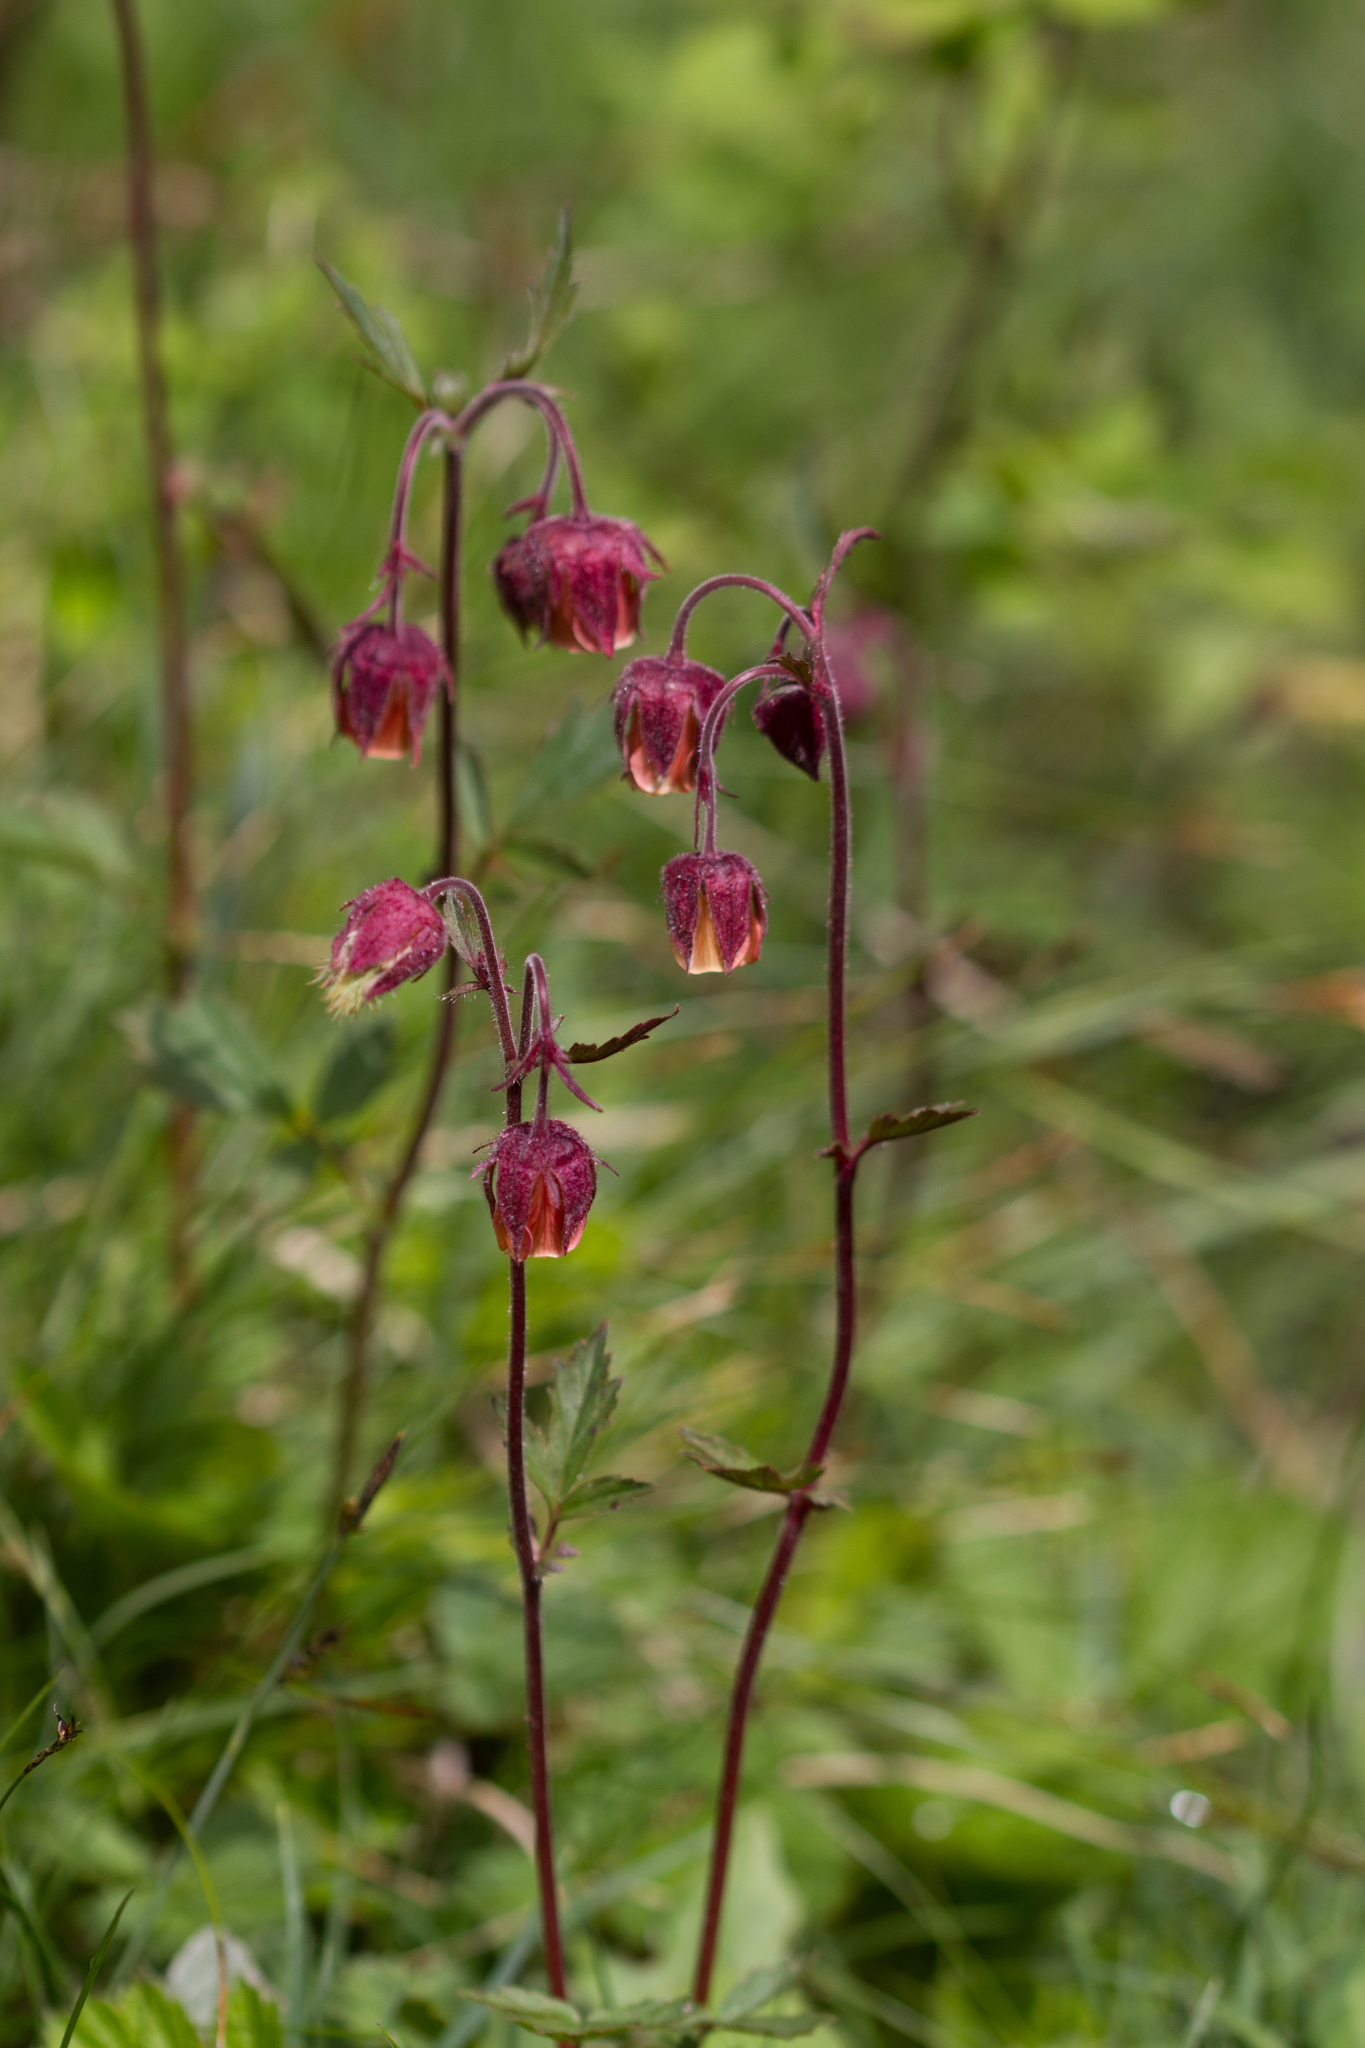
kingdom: Plantae
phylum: Tracheophyta
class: Magnoliopsida
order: Rosales
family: Rosaceae
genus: Geum
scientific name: Geum rivale
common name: Water avens
